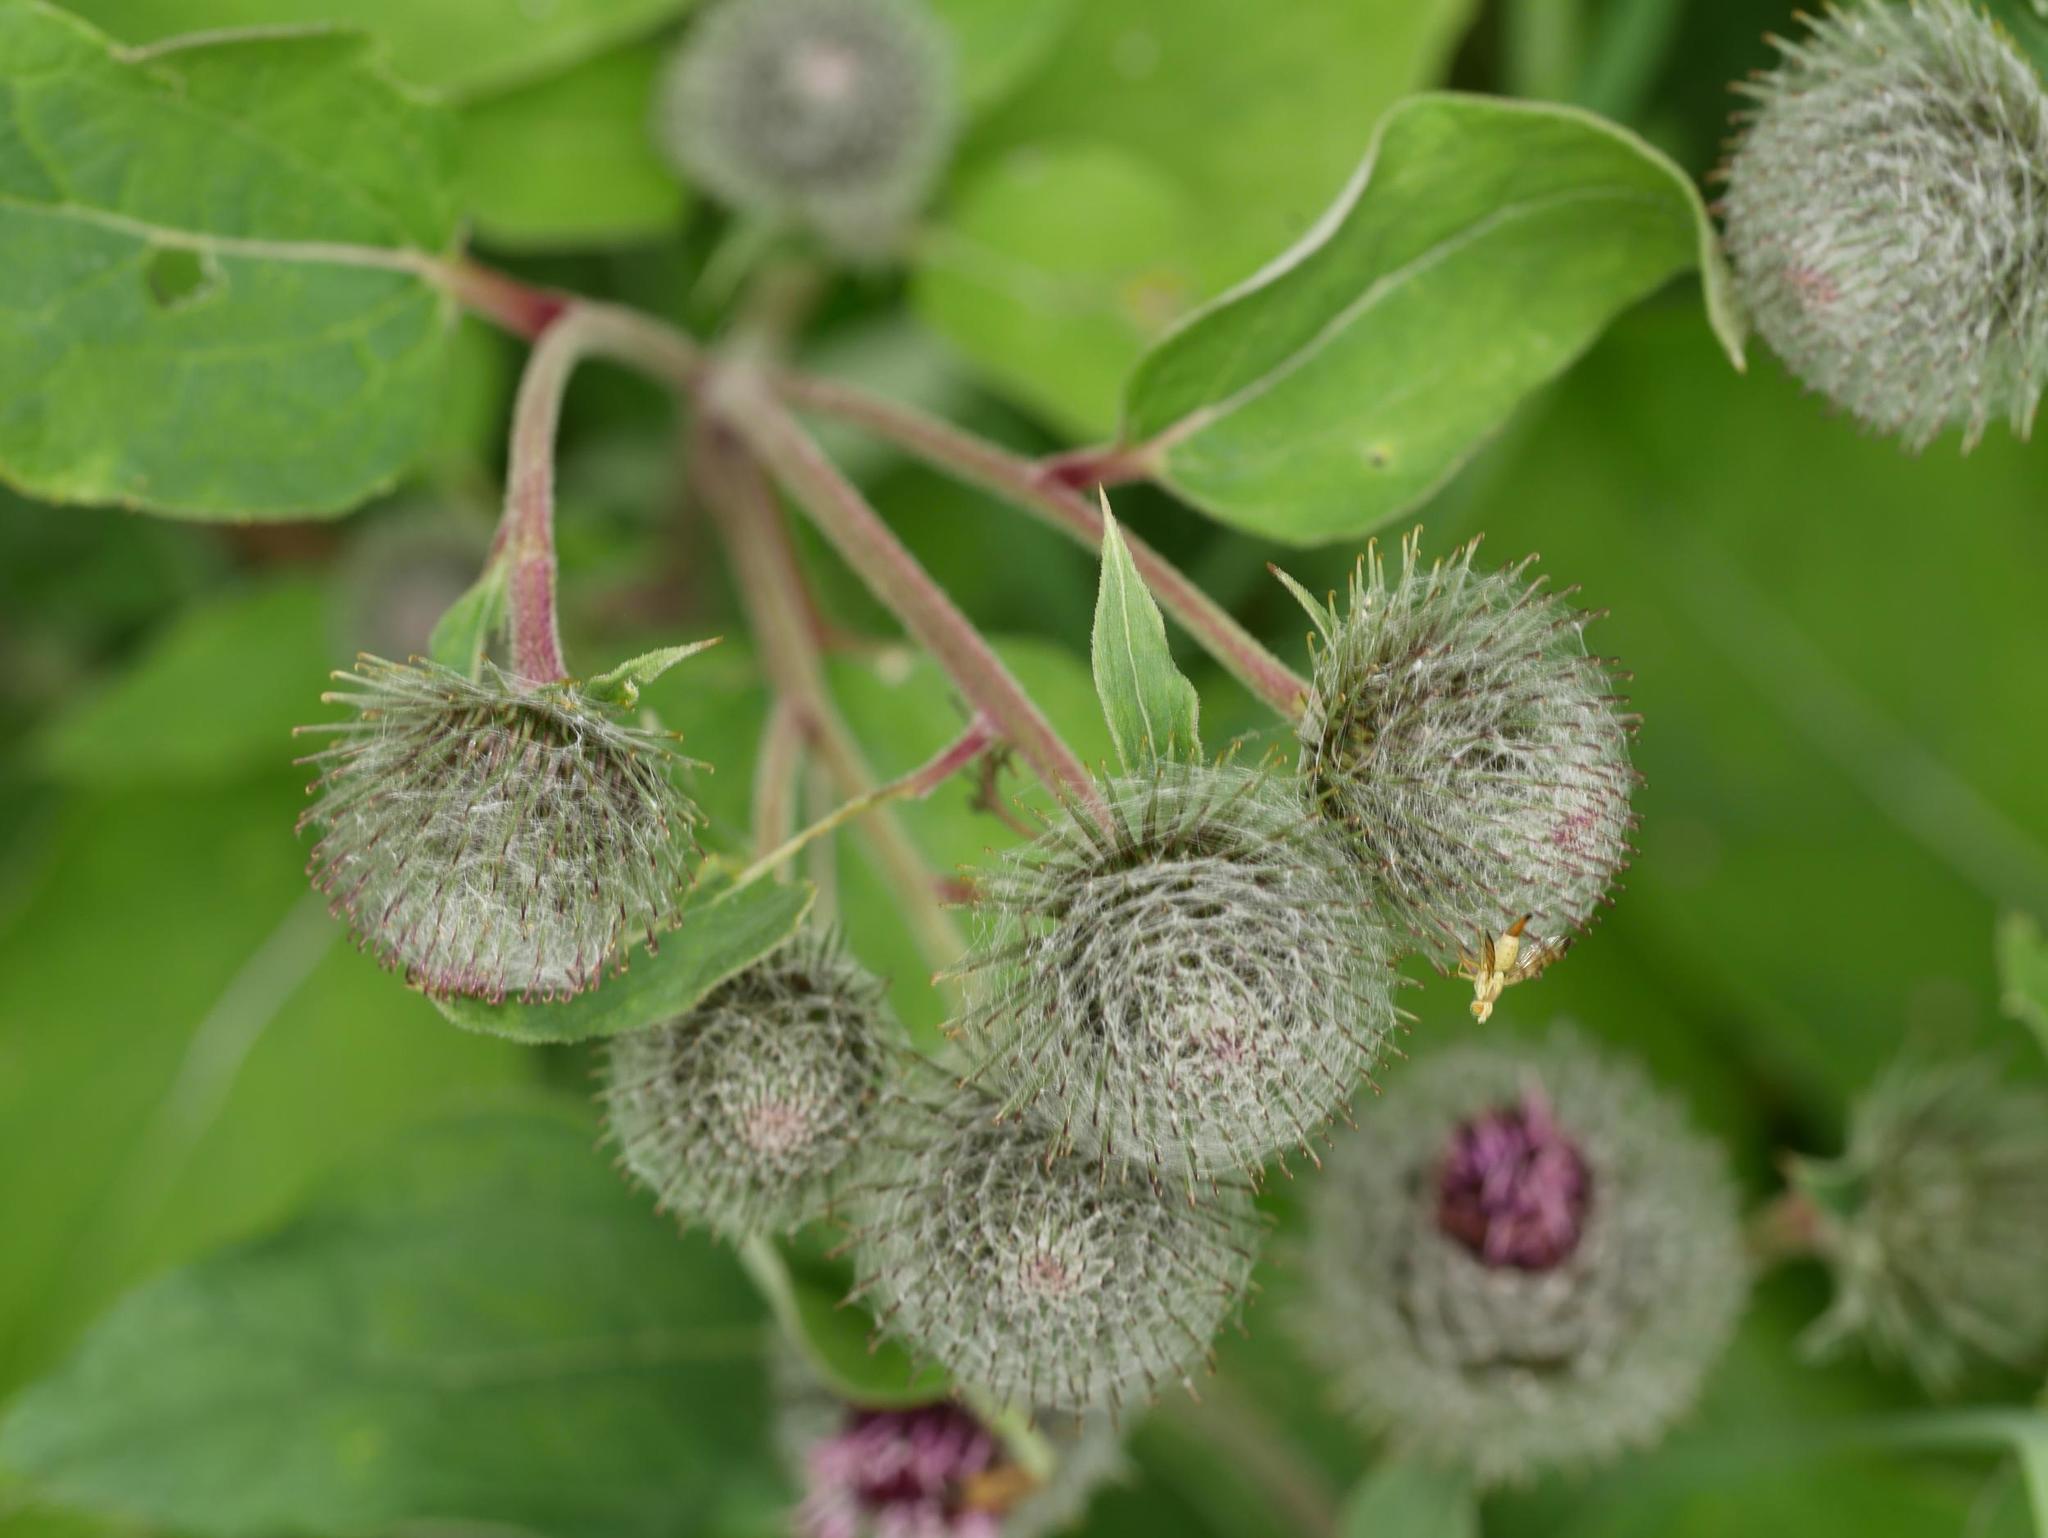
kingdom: Plantae
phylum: Tracheophyta
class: Magnoliopsida
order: Asterales
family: Asteraceae
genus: Arctium
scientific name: Arctium tomentosum
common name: Woolly burdock
